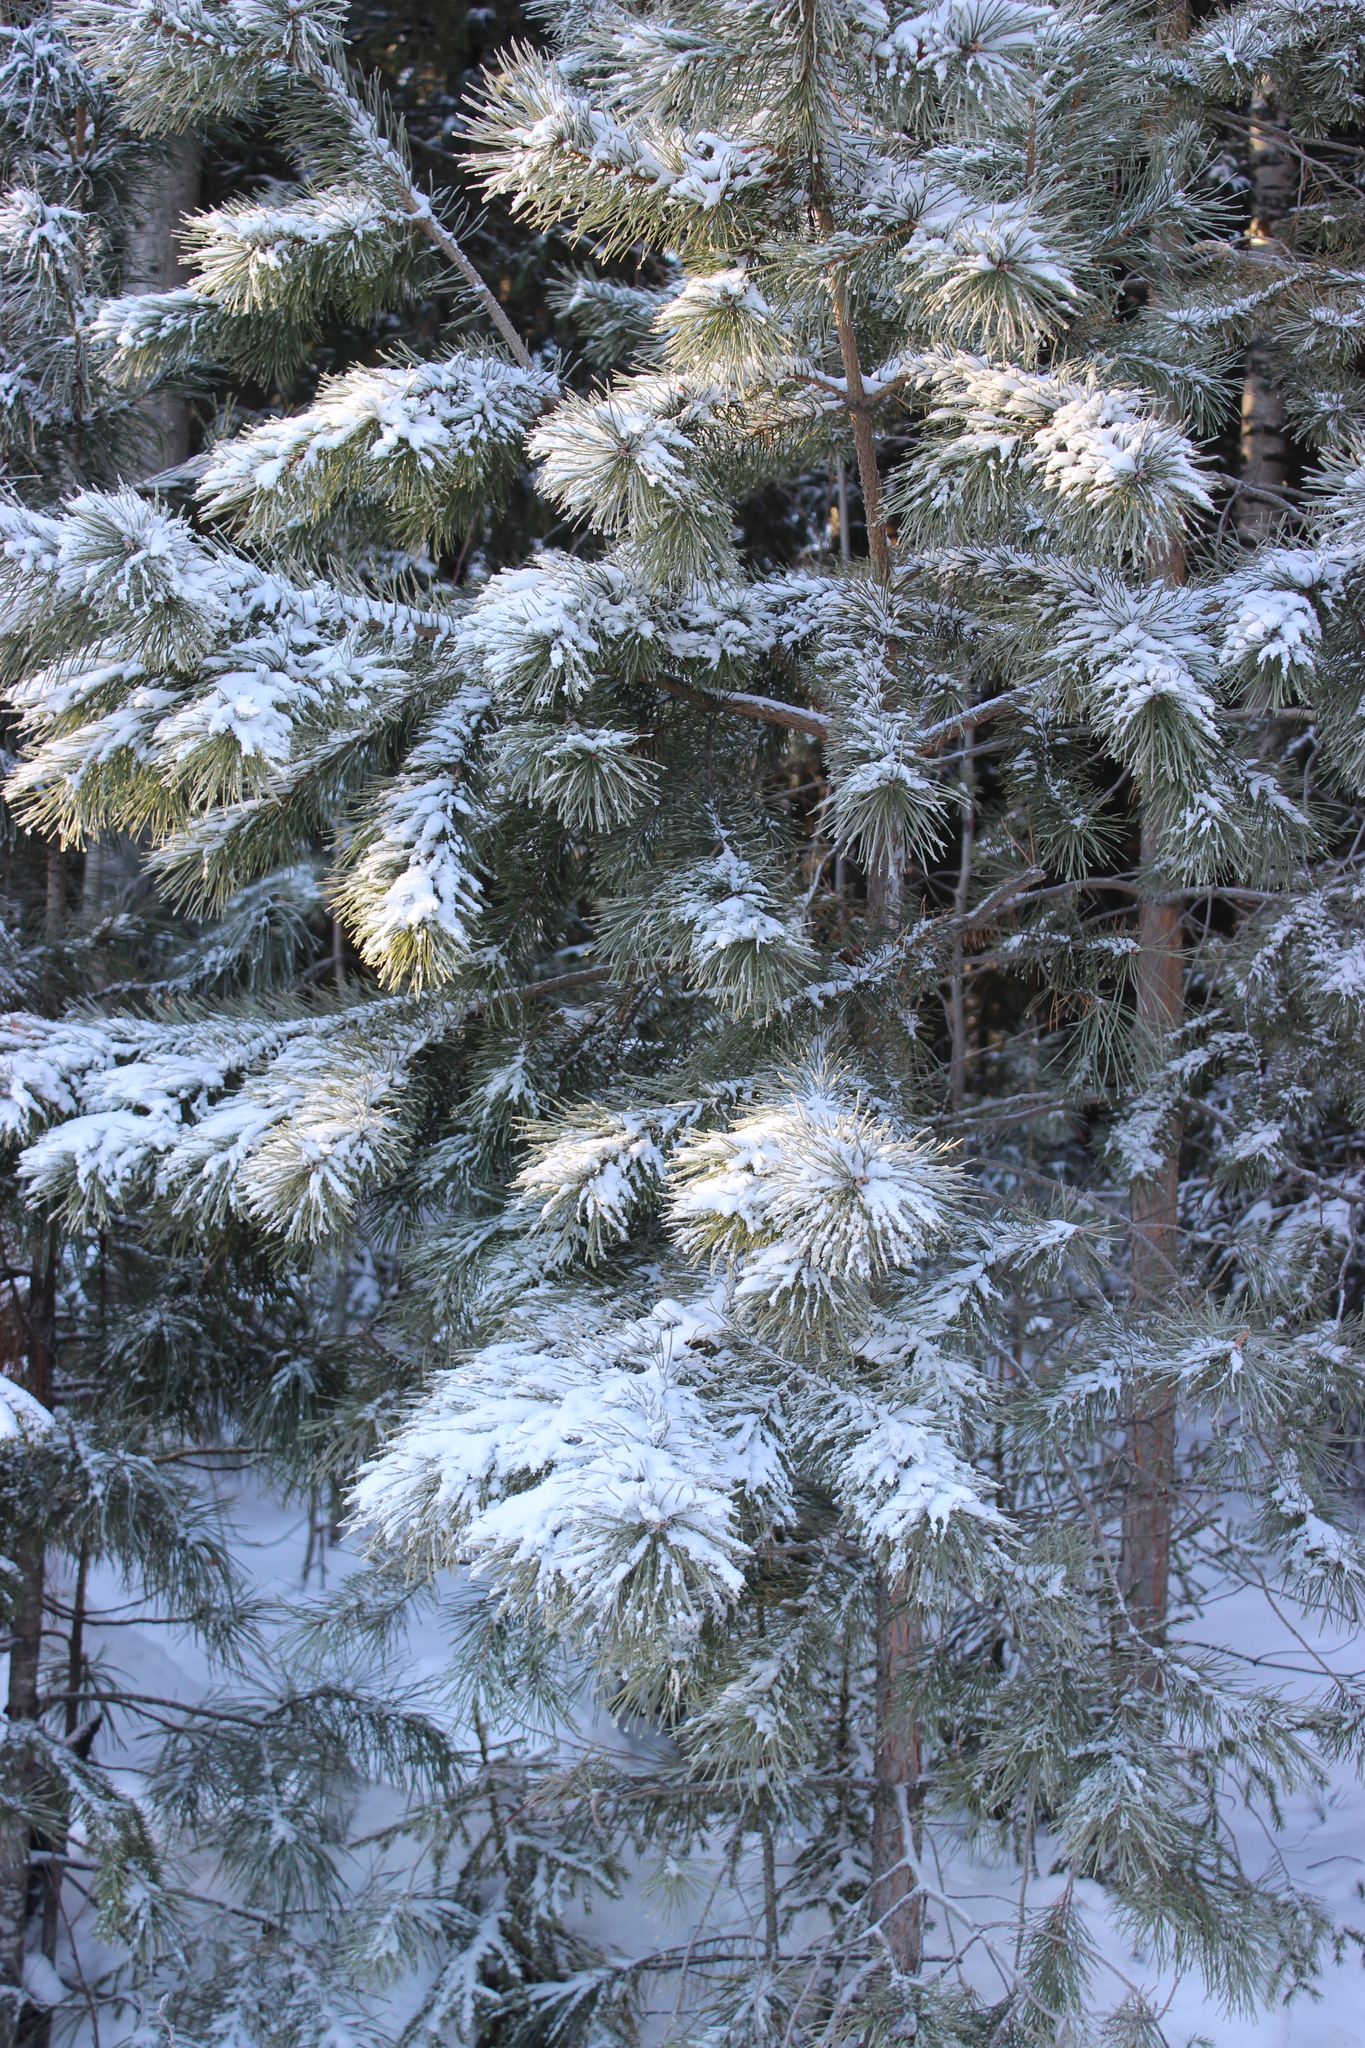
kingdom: Plantae
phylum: Tracheophyta
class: Pinopsida
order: Pinales
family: Pinaceae
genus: Pinus
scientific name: Pinus sylvestris
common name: Scots pine
